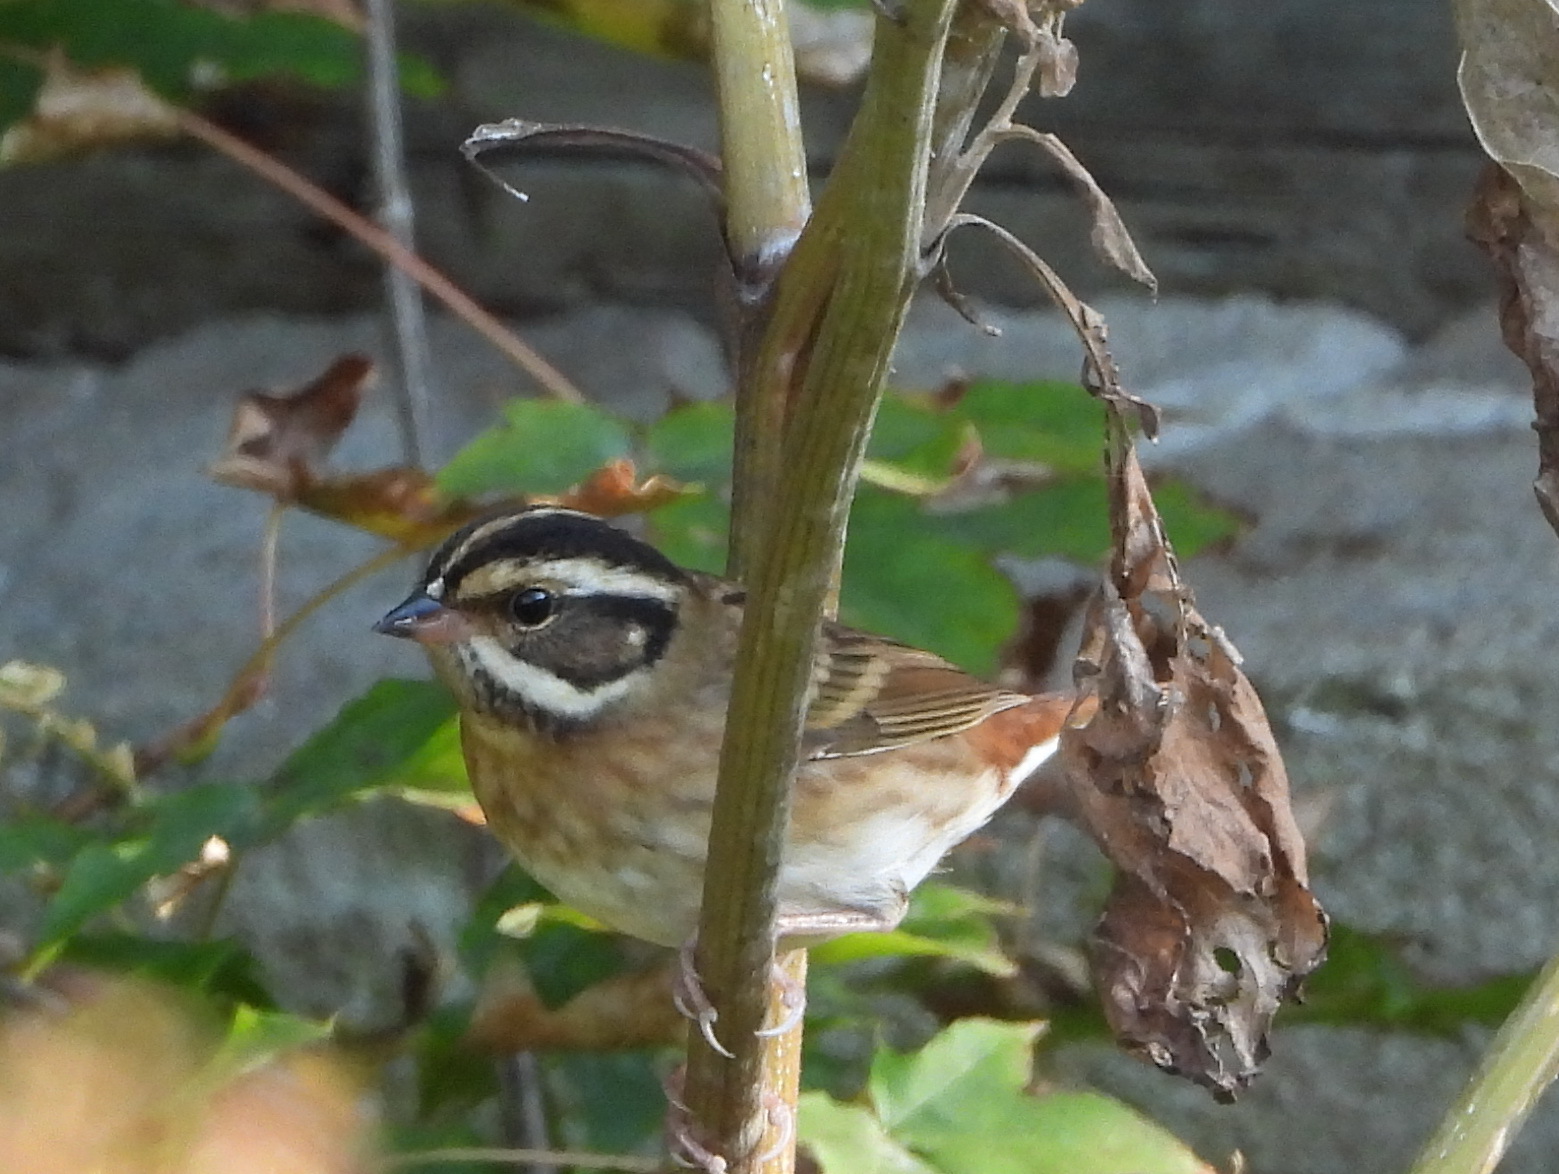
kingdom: Animalia
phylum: Chordata
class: Aves
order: Passeriformes
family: Emberizidae
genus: Emberiza
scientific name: Emberiza tristrami
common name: Tristram's bunting
